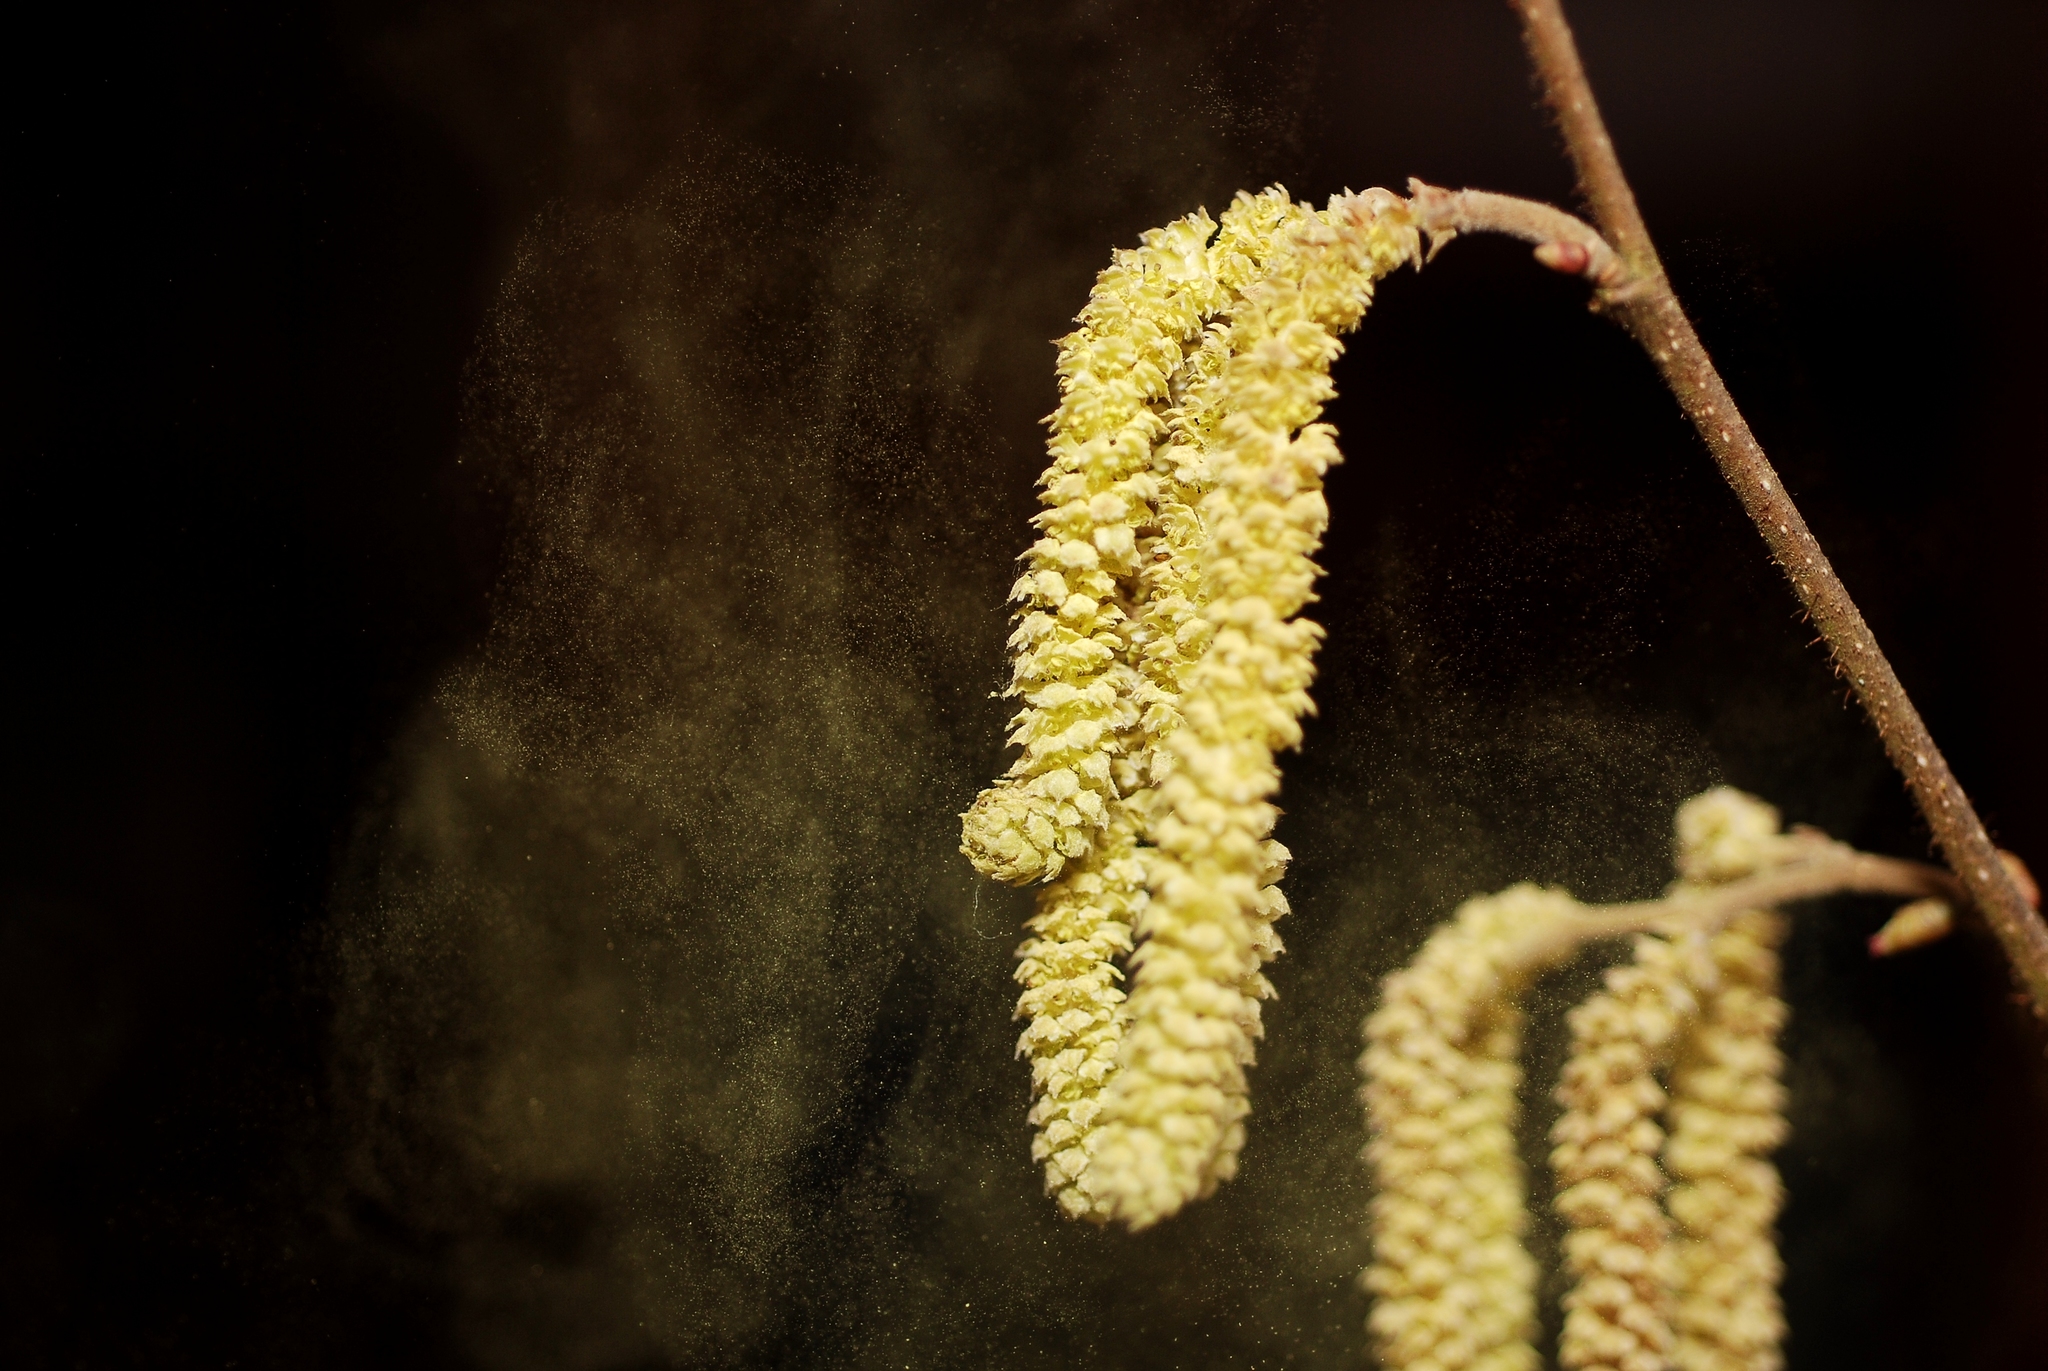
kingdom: Plantae
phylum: Tracheophyta
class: Magnoliopsida
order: Fagales
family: Betulaceae
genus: Corylus
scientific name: Corylus avellana
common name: European hazel
